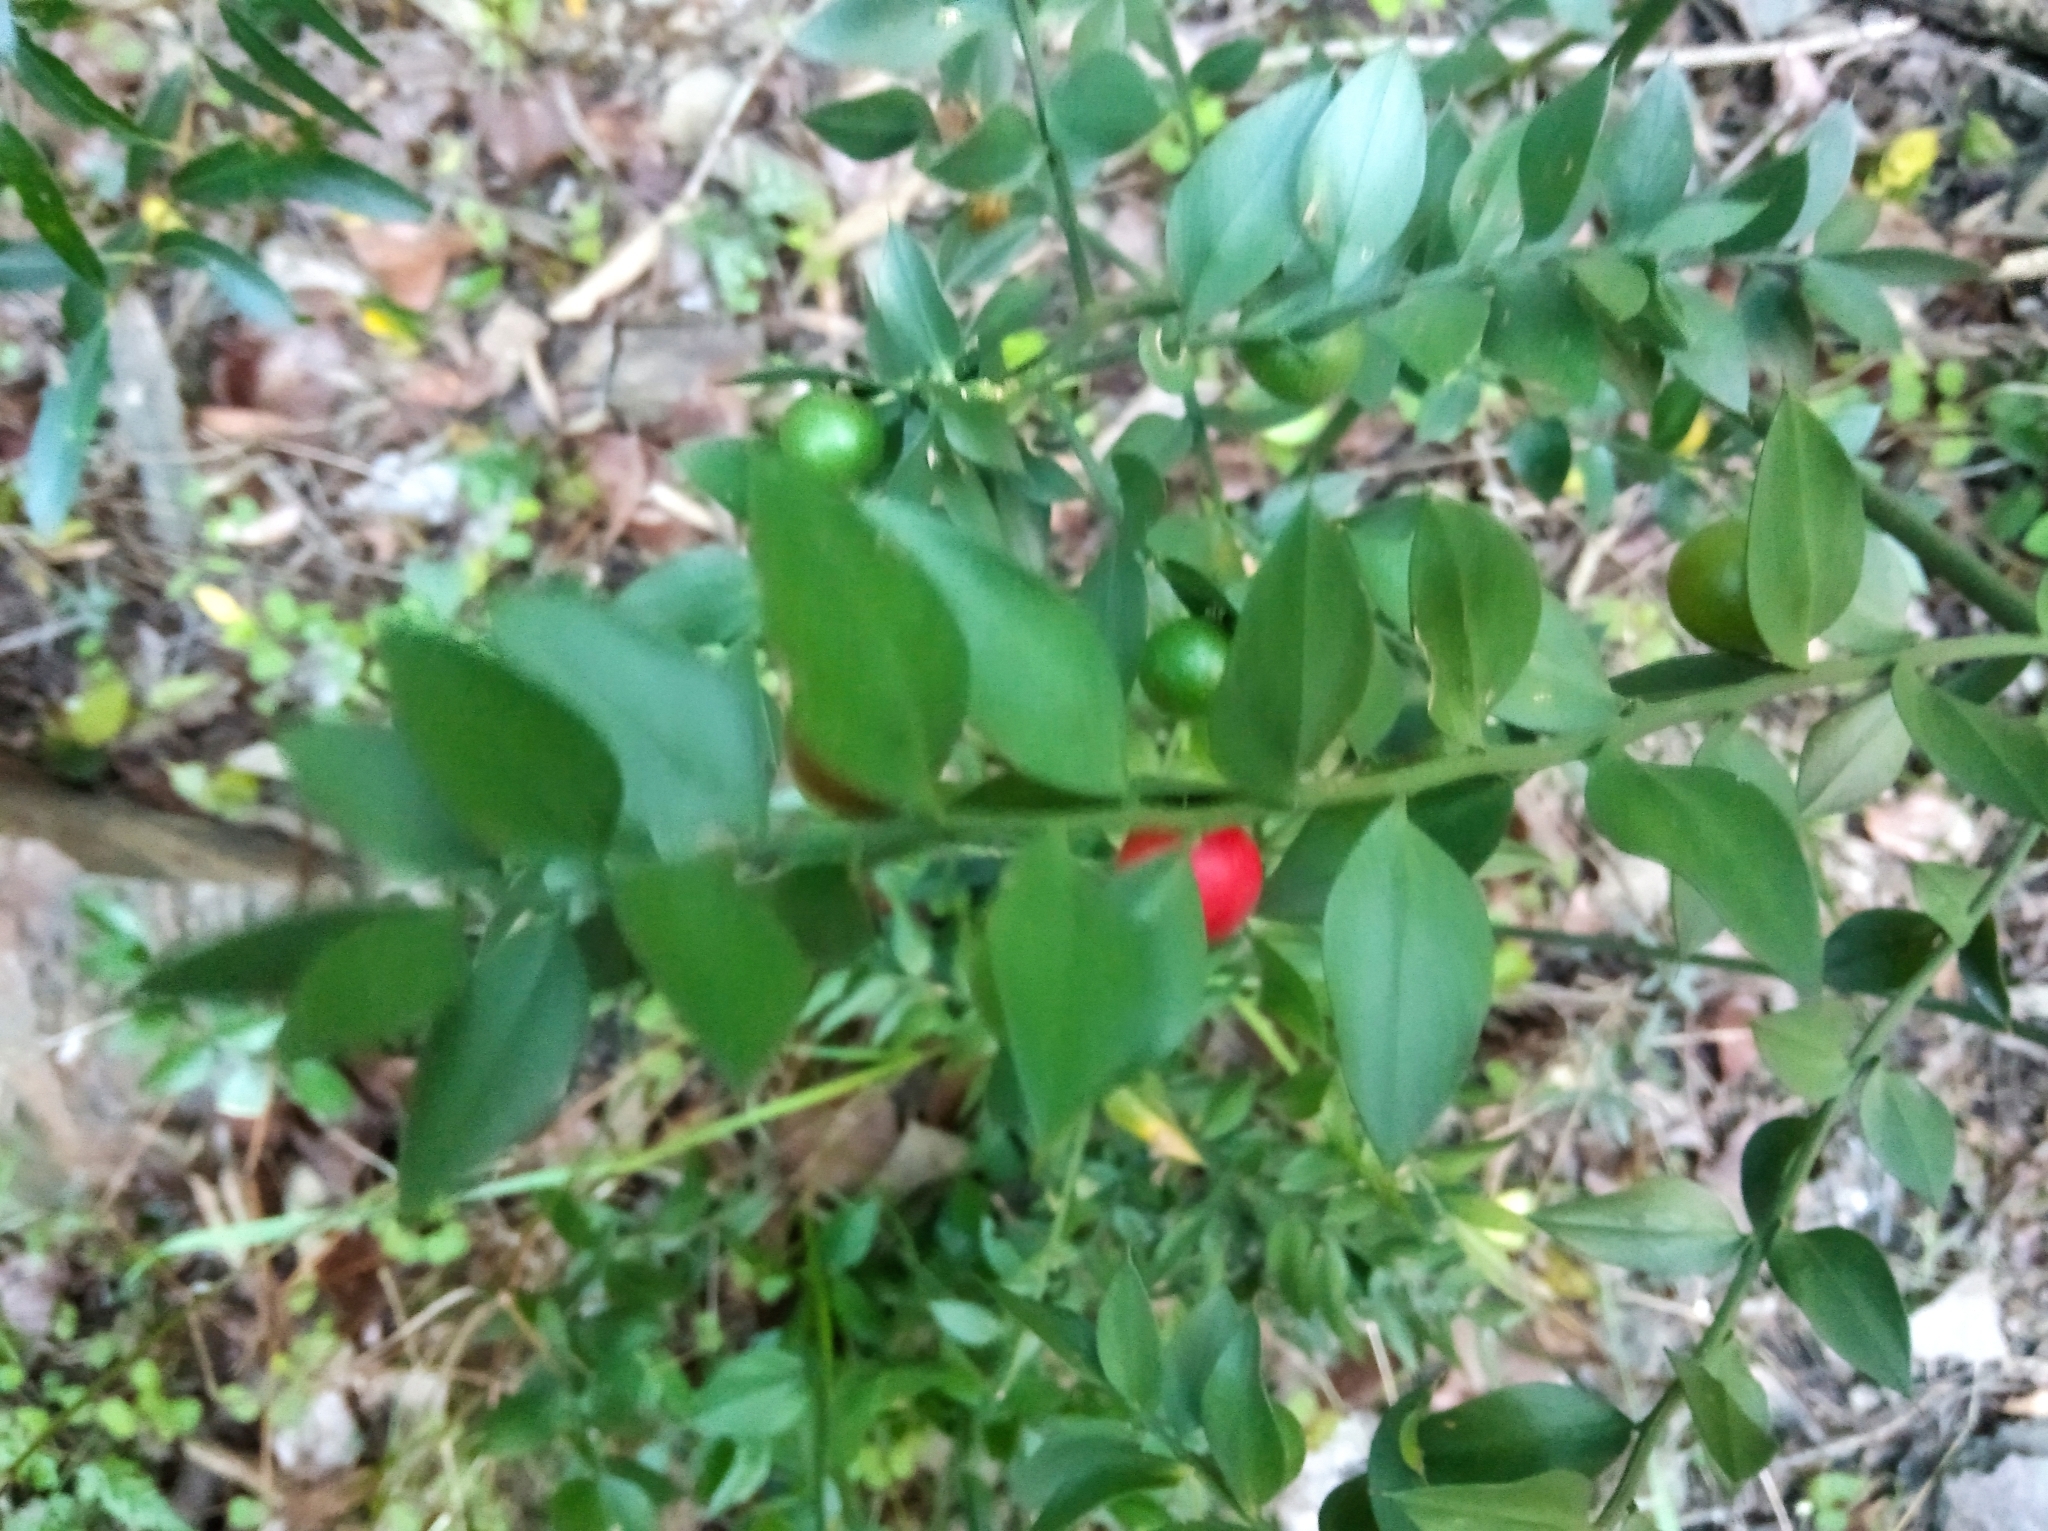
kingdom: Plantae
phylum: Tracheophyta
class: Liliopsida
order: Asparagales
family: Asparagaceae
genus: Ruscus
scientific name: Ruscus aculeatus
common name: Butcher's-broom
